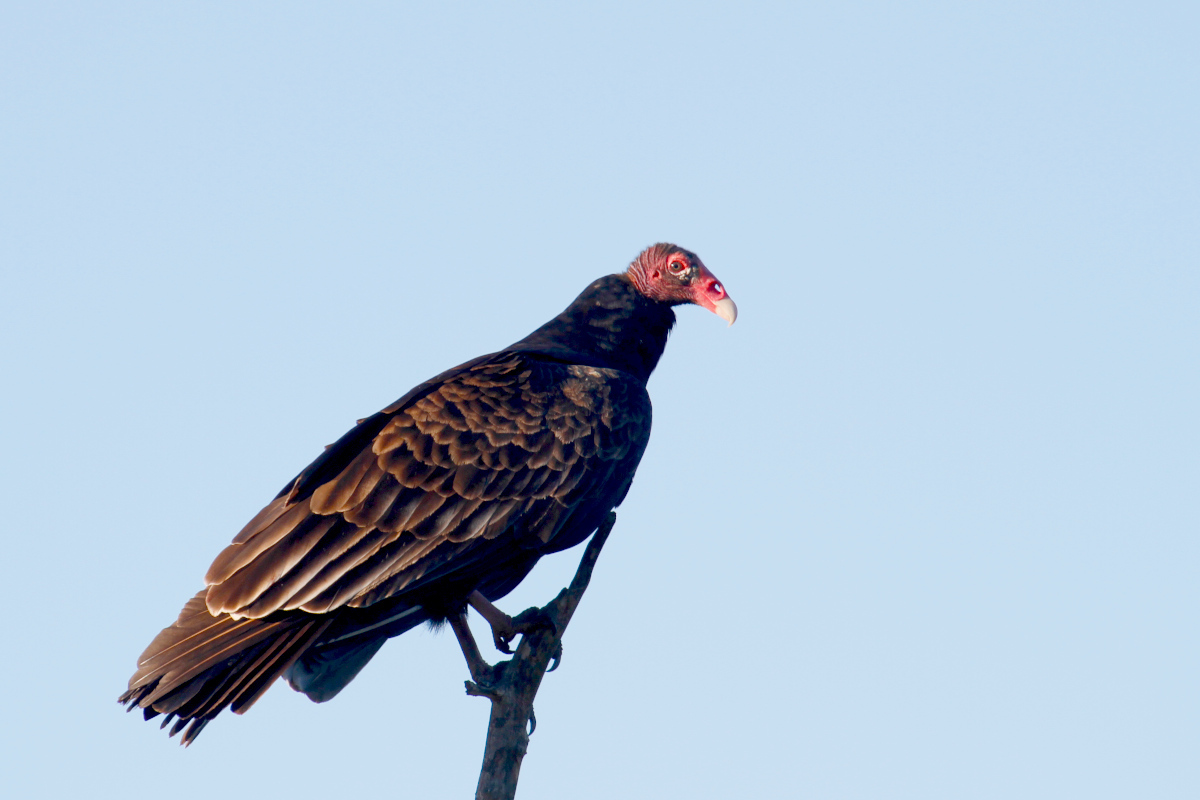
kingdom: Animalia
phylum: Chordata
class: Aves
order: Accipitriformes
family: Cathartidae
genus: Cathartes
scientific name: Cathartes aura
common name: Turkey vulture
